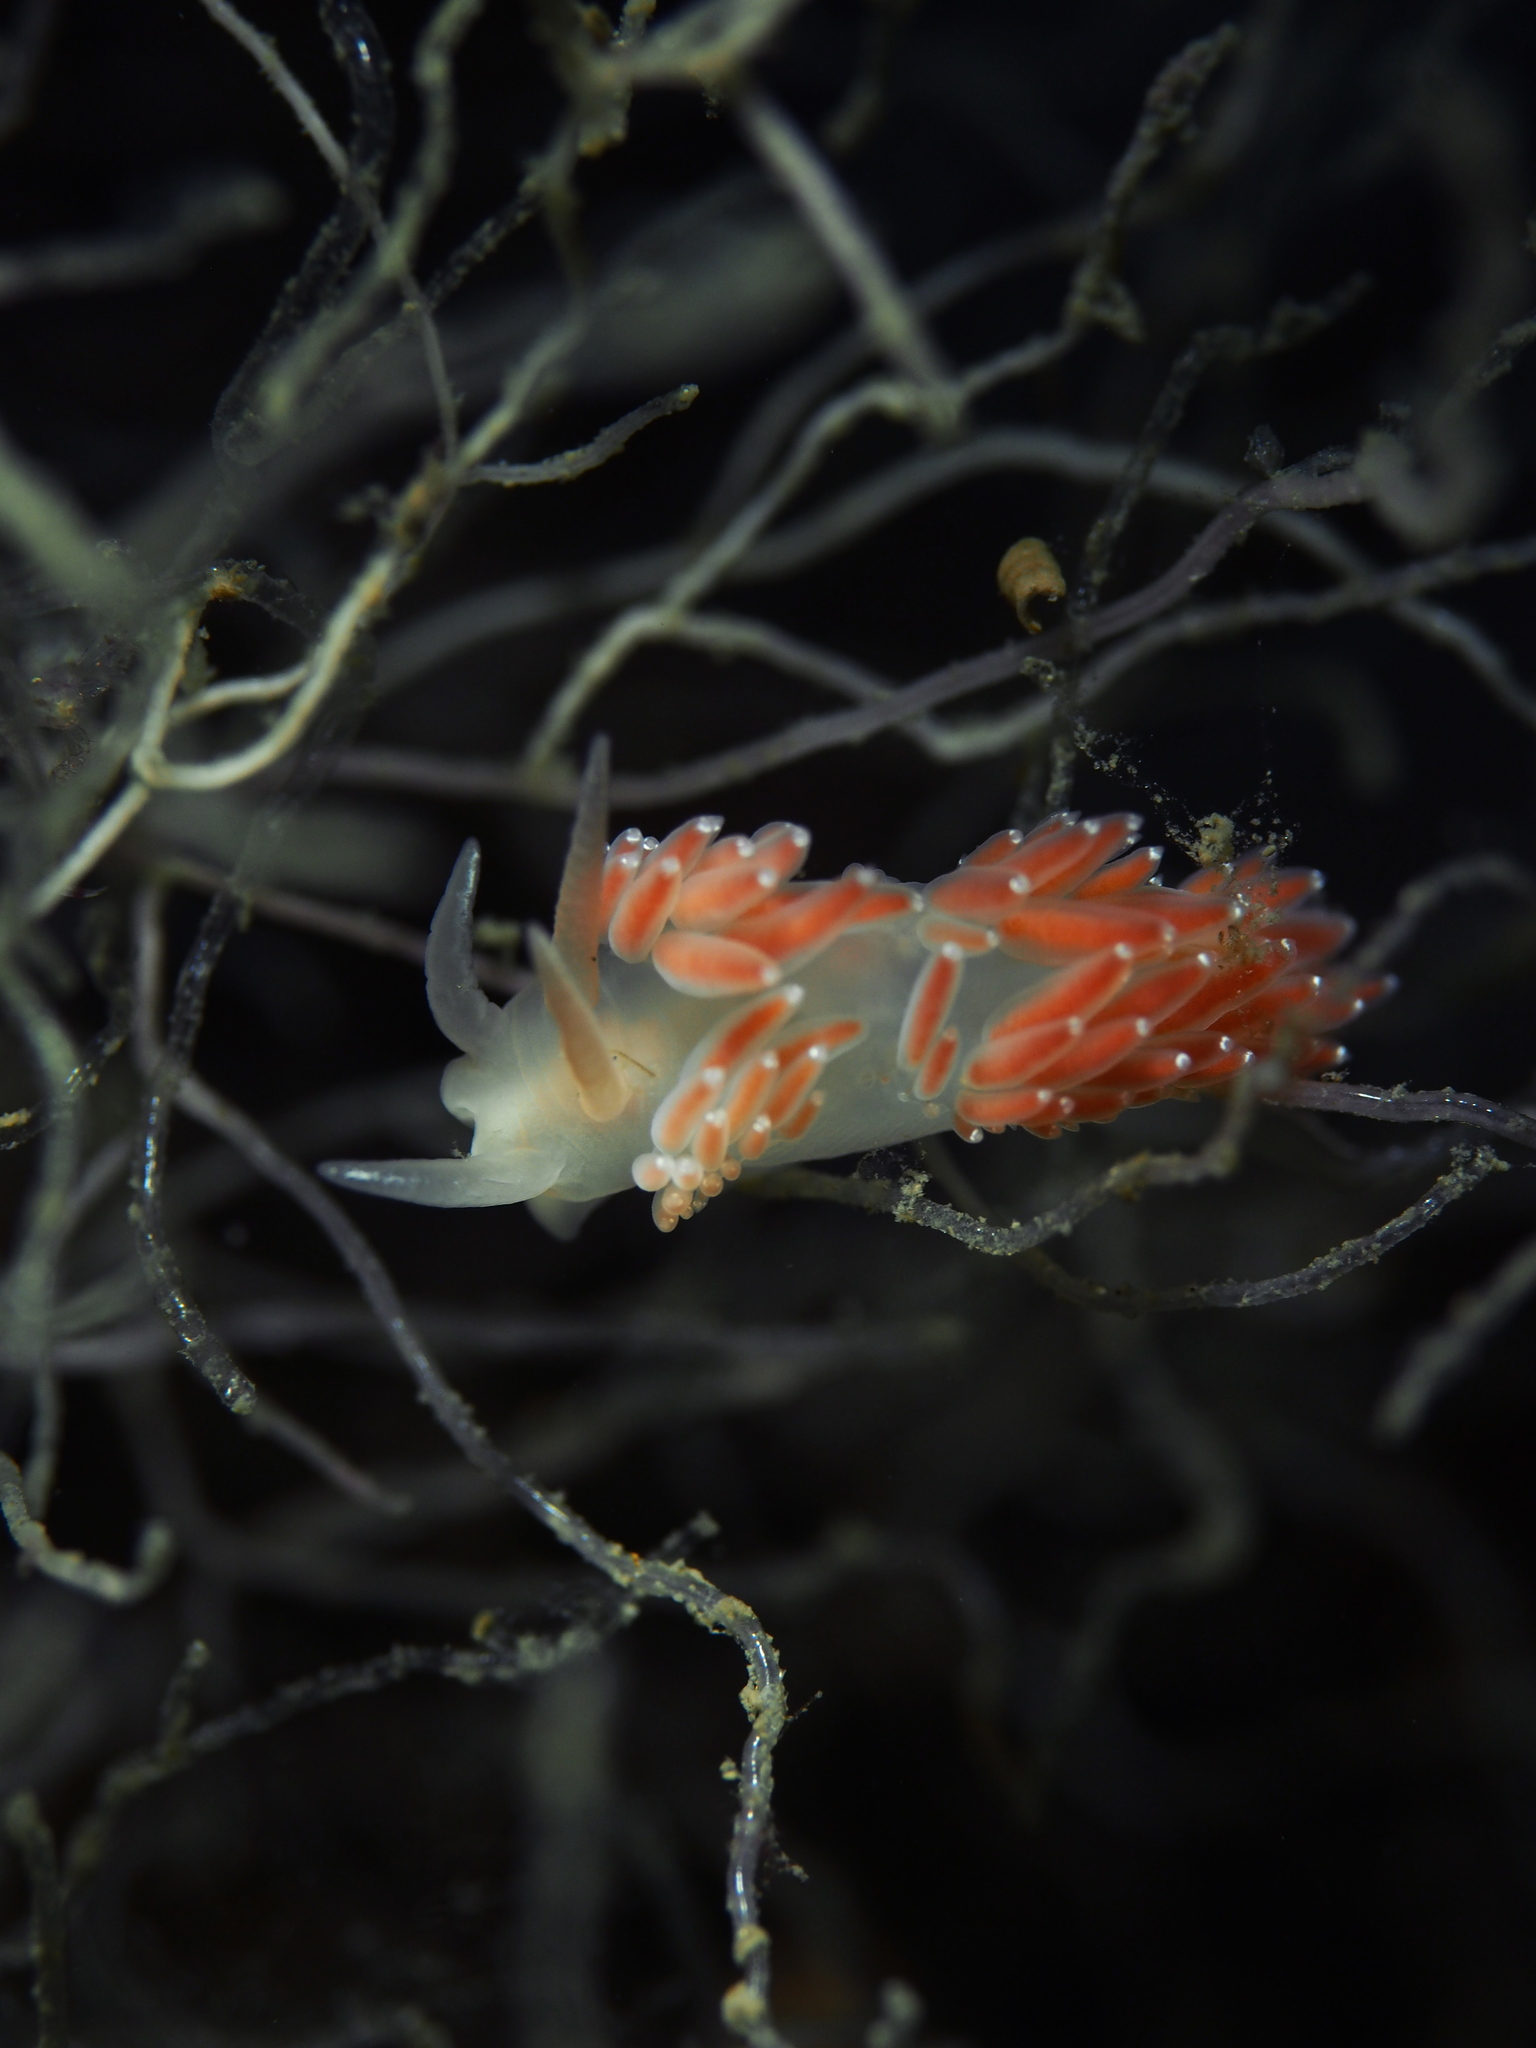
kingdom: Animalia
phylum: Mollusca
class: Gastropoda
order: Nudibranchia
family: Coryphellidae
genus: Coryphella
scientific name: Coryphella verrucosa
